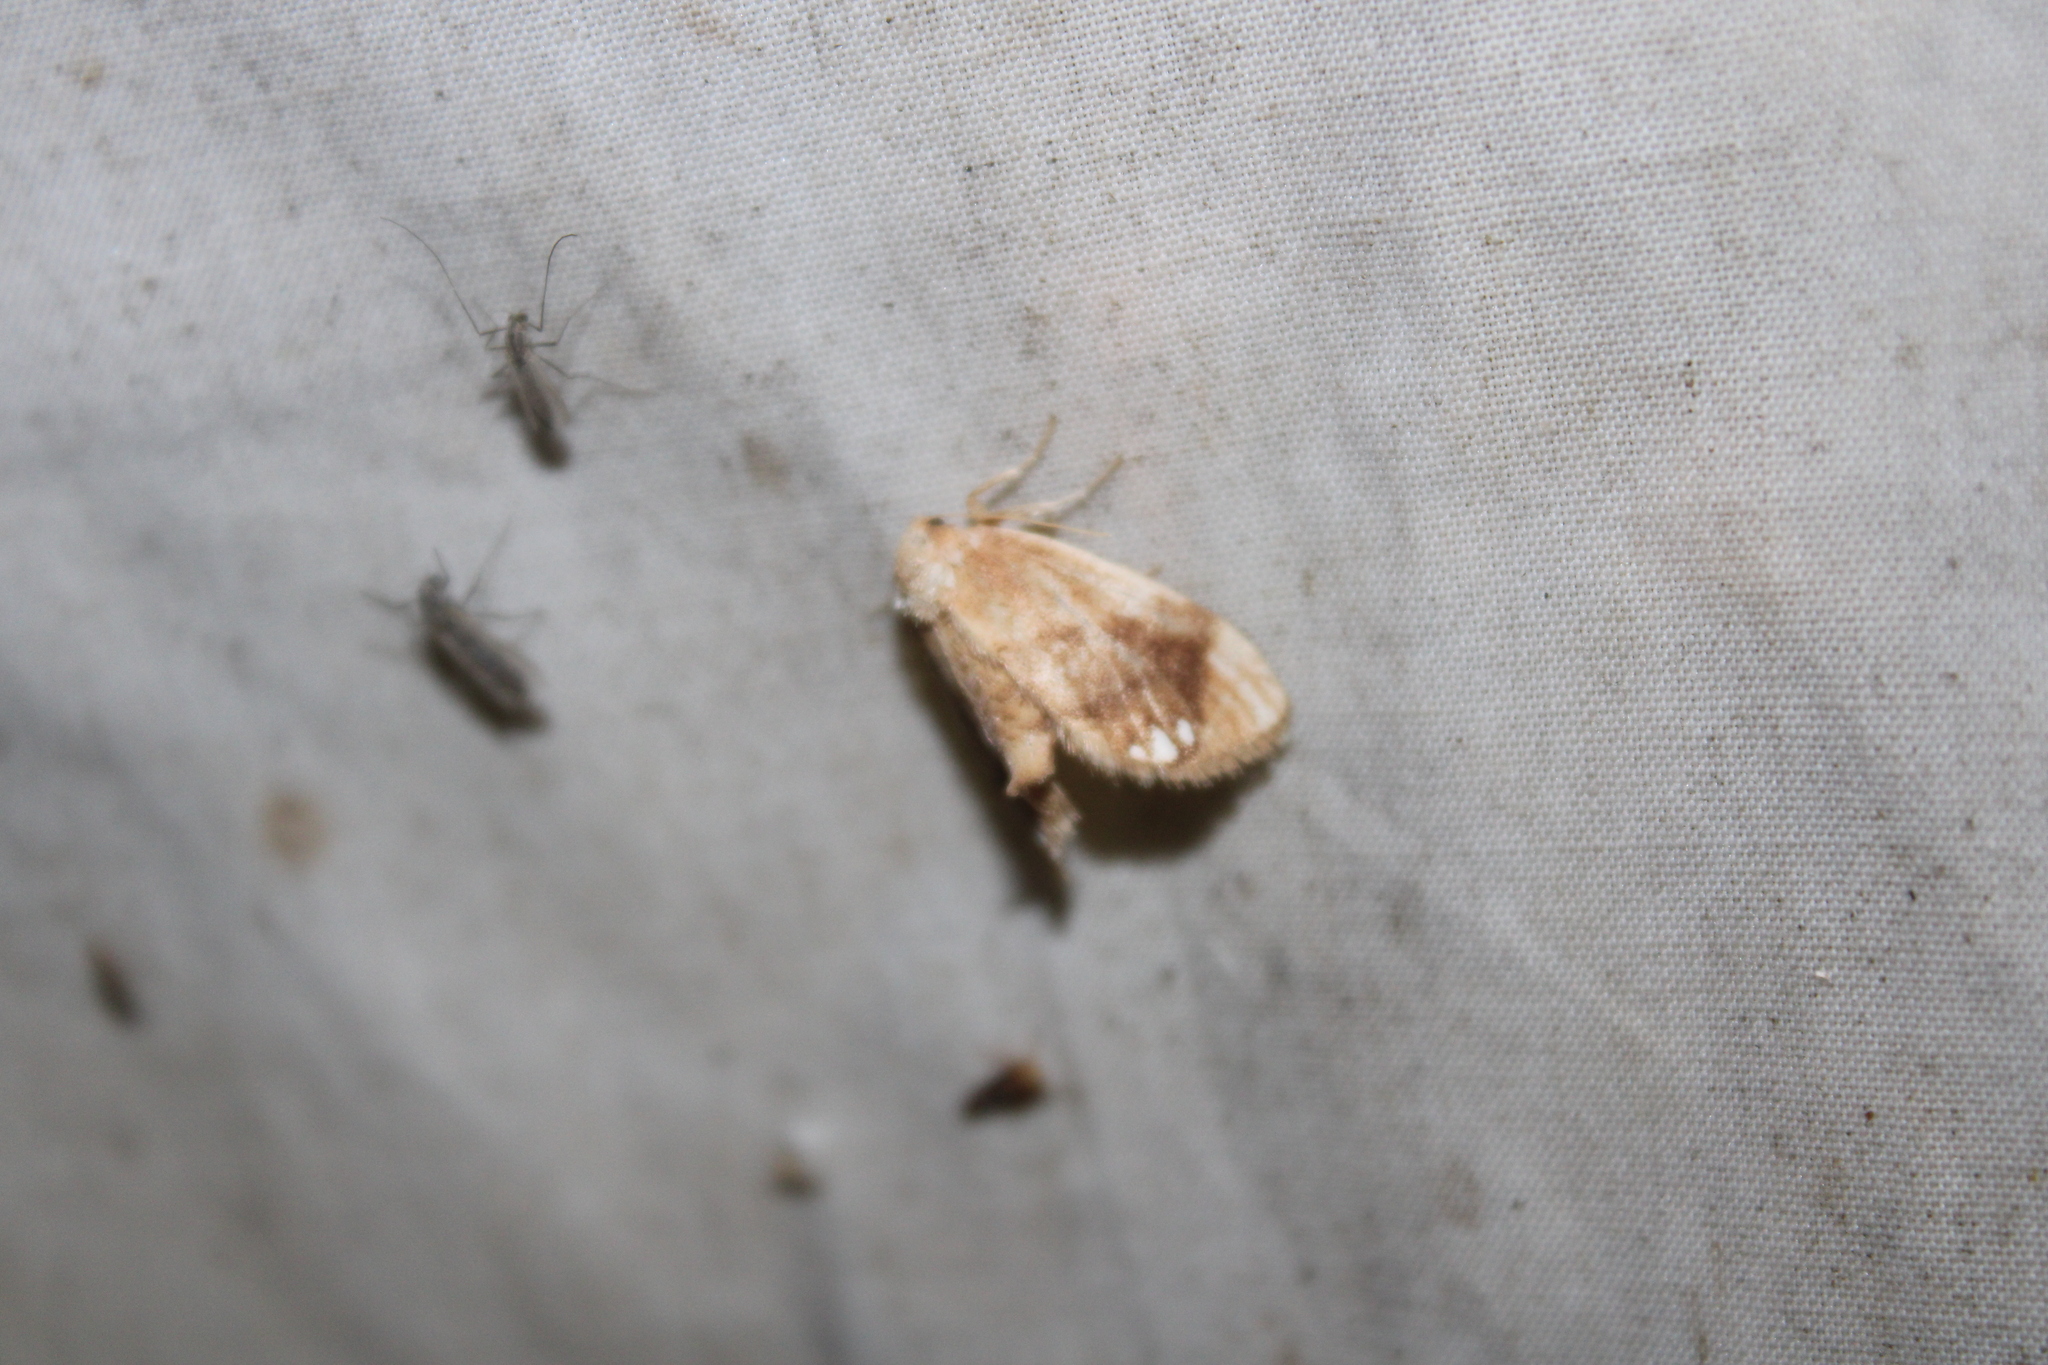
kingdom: Animalia
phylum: Arthropoda
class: Insecta
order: Lepidoptera
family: Limacodidae
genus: Packardia
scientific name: Packardia geminata
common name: Jeweled tailed slug moth
